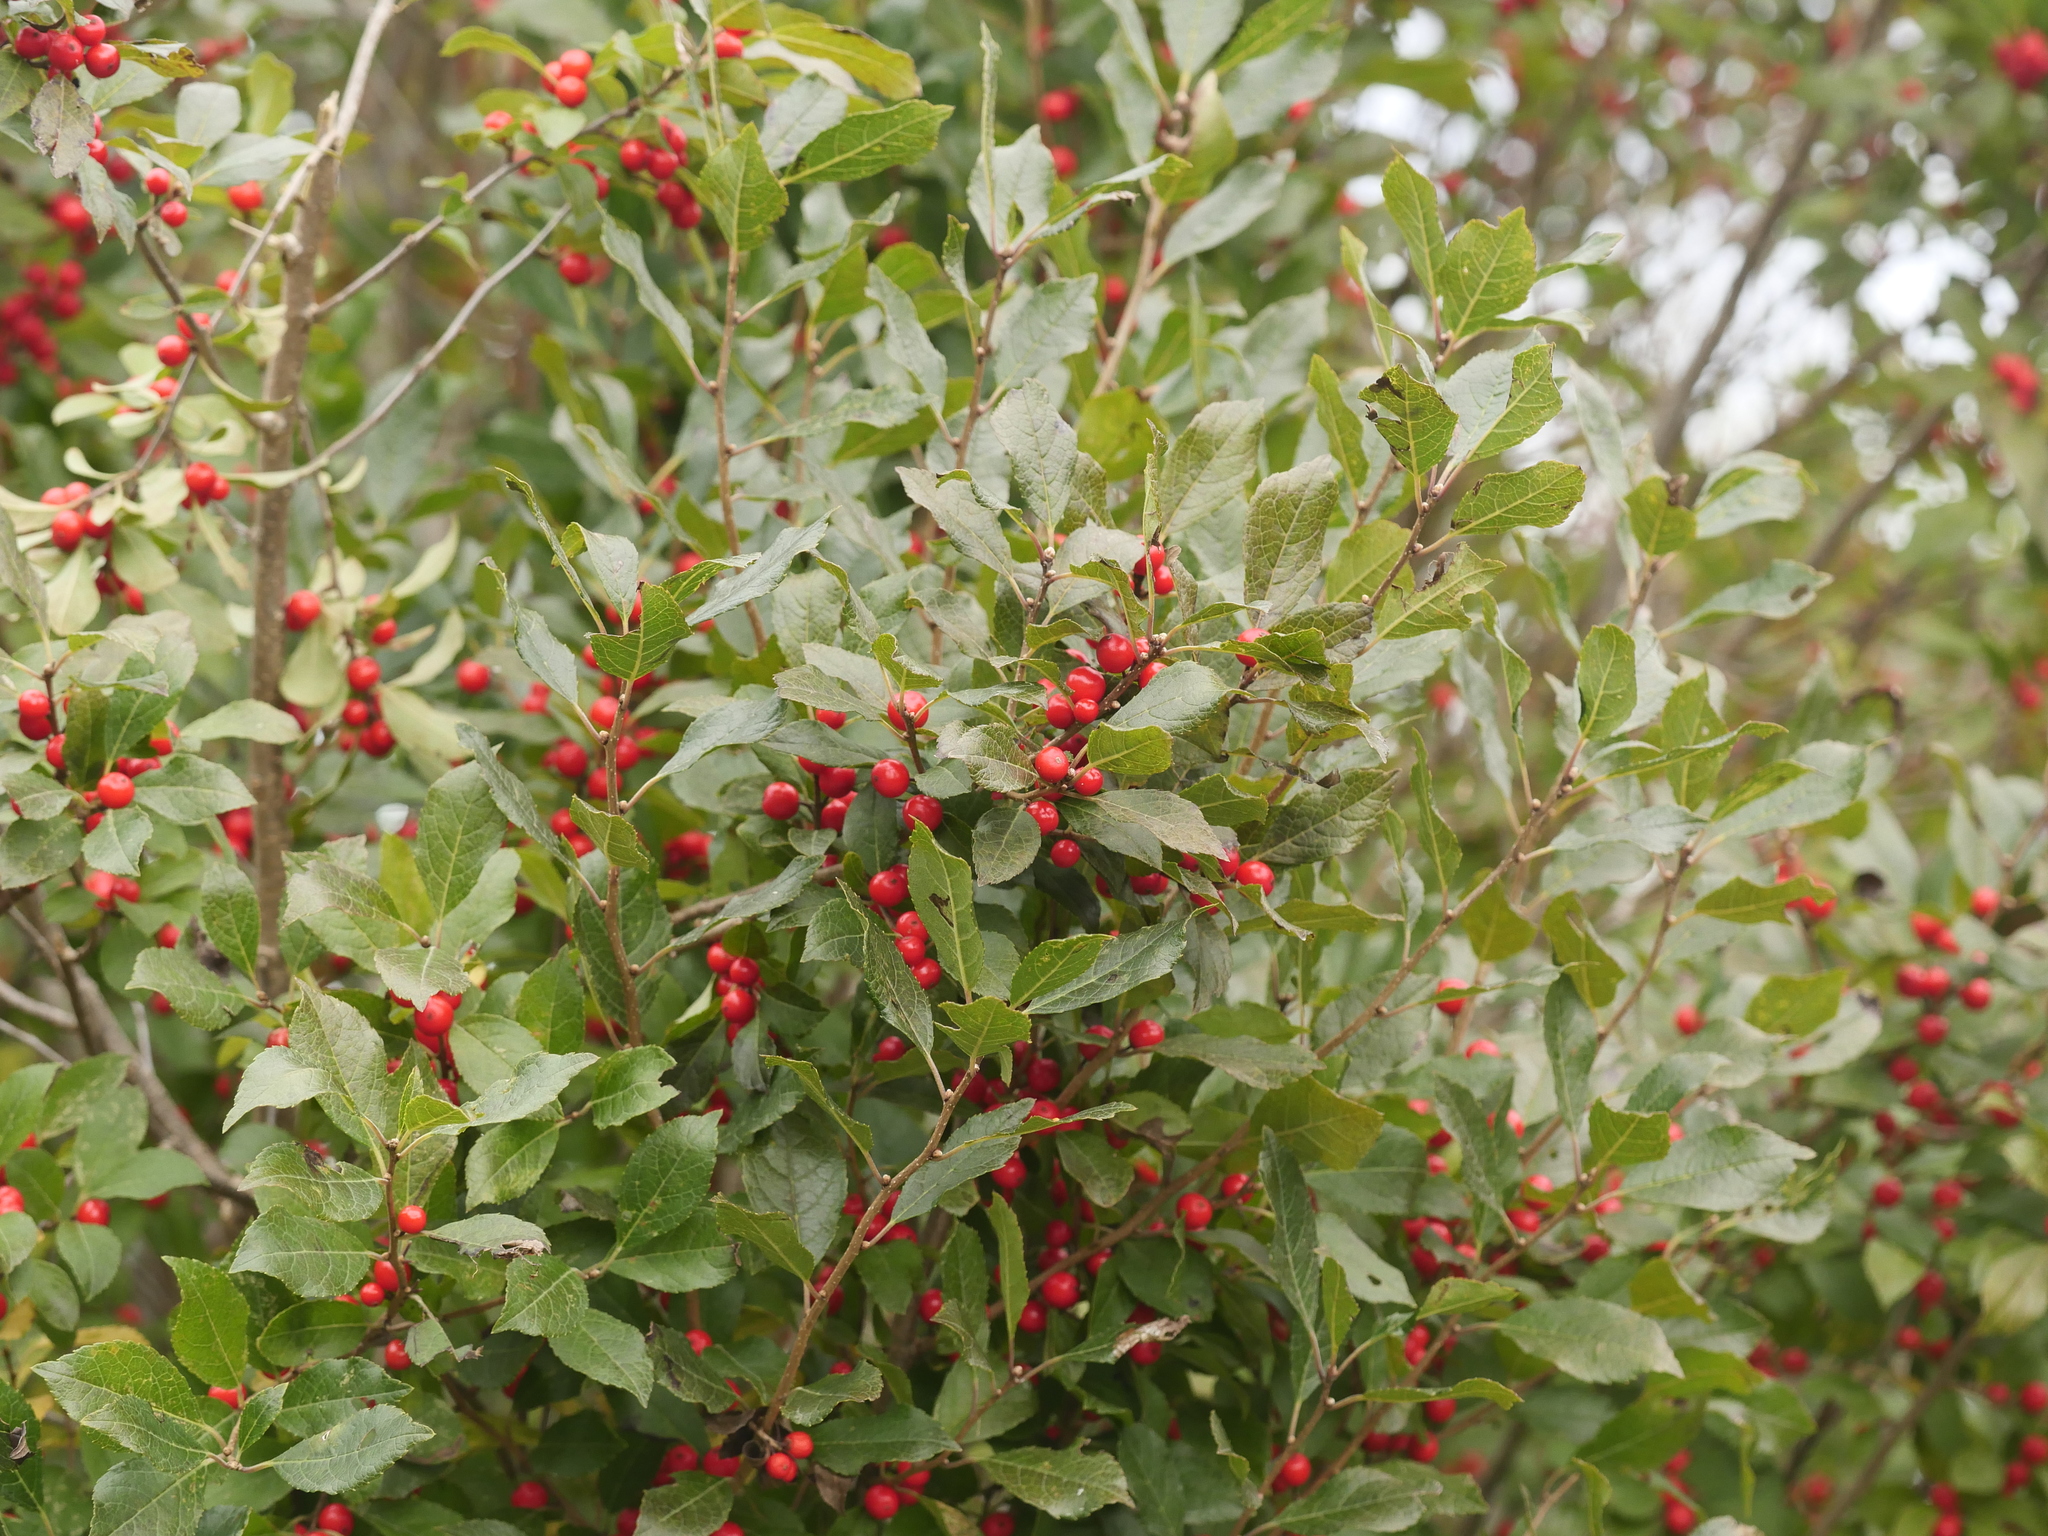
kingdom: Plantae
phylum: Tracheophyta
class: Magnoliopsida
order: Aquifoliales
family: Aquifoliaceae
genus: Ilex
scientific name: Ilex verticillata
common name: Virginia winterberry
